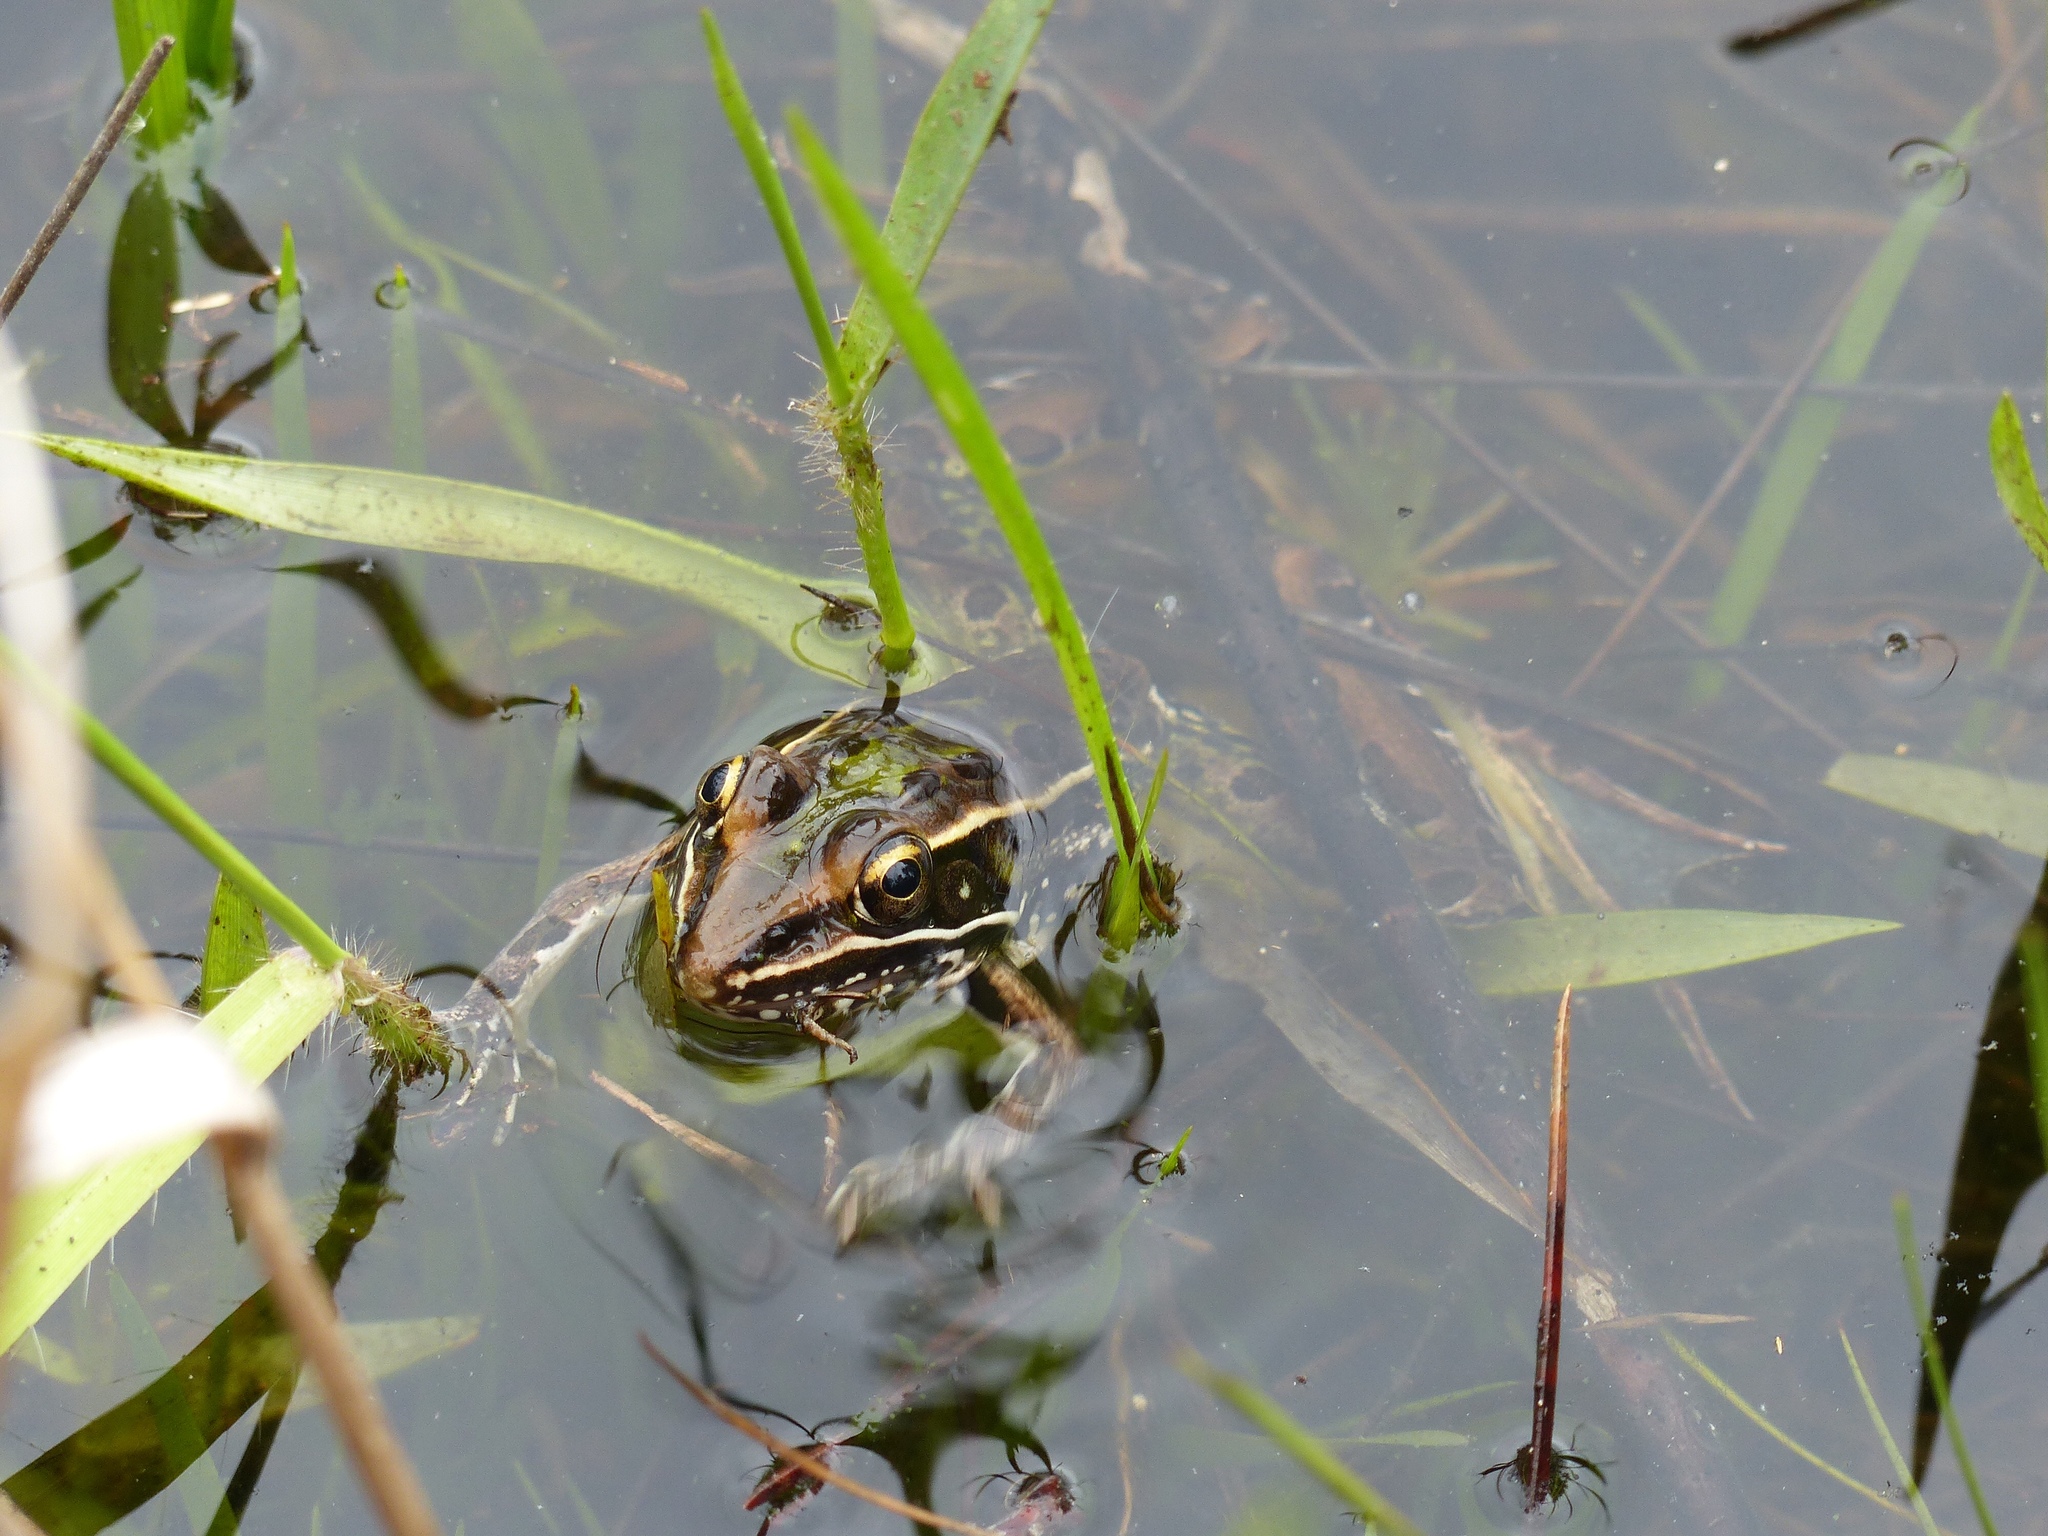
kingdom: Animalia
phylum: Chordata
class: Amphibia
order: Anura
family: Ranidae
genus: Lithobates
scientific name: Lithobates sphenocephalus
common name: Southern leopard frog
